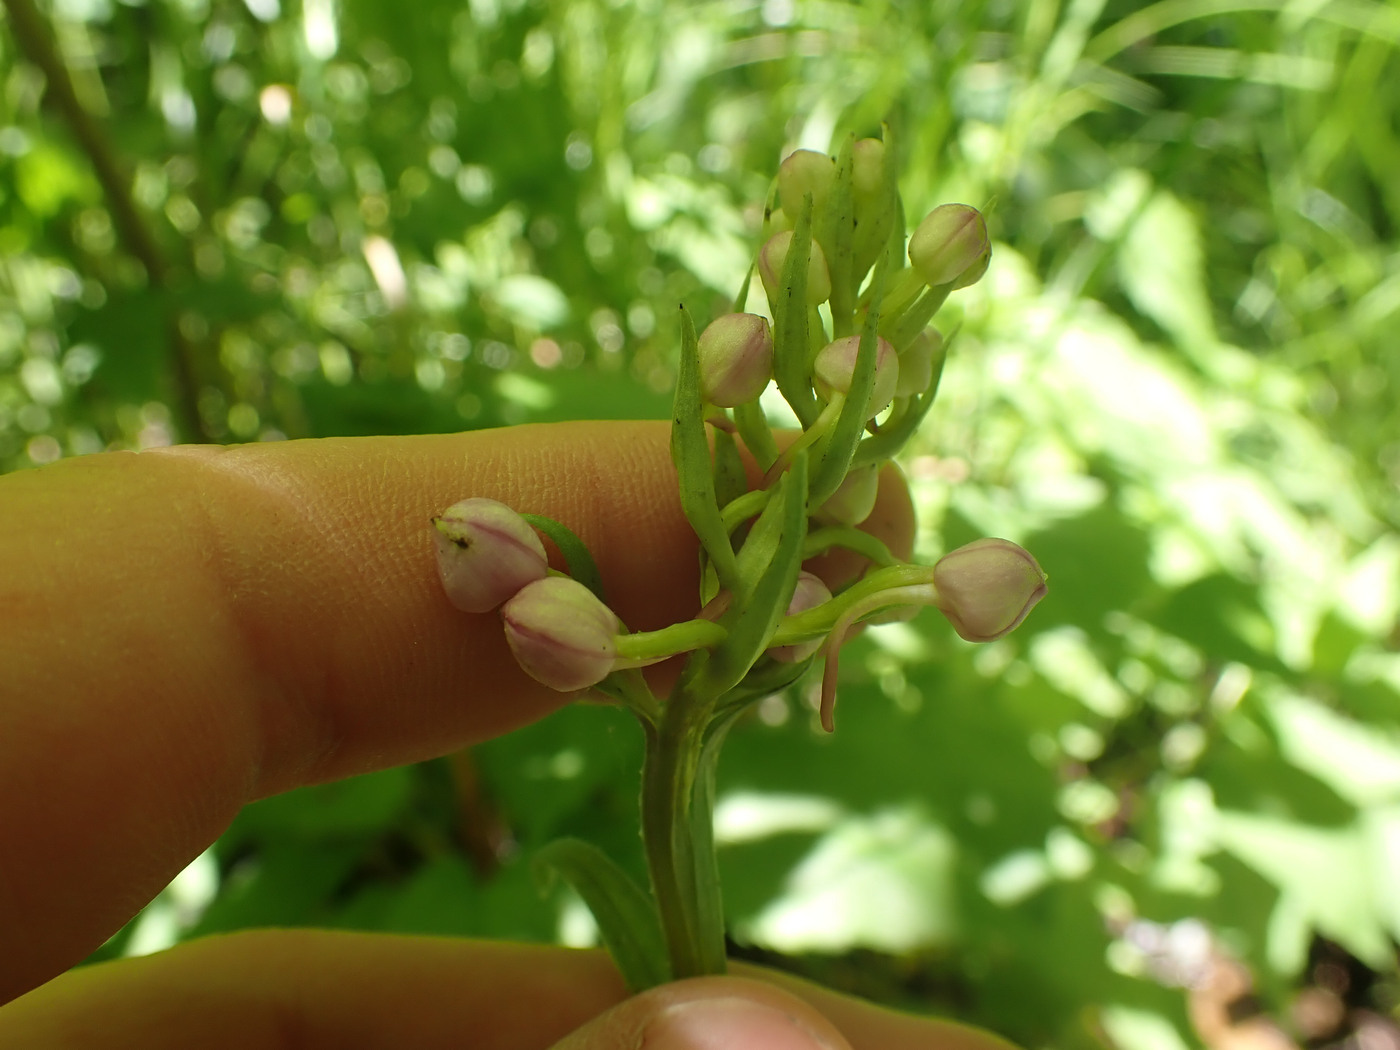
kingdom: Plantae
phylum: Tracheophyta
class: Liliopsida
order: Asparagales
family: Orchidaceae
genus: Platanthera
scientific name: Platanthera grandiflora
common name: Greater purple fringed orchid
